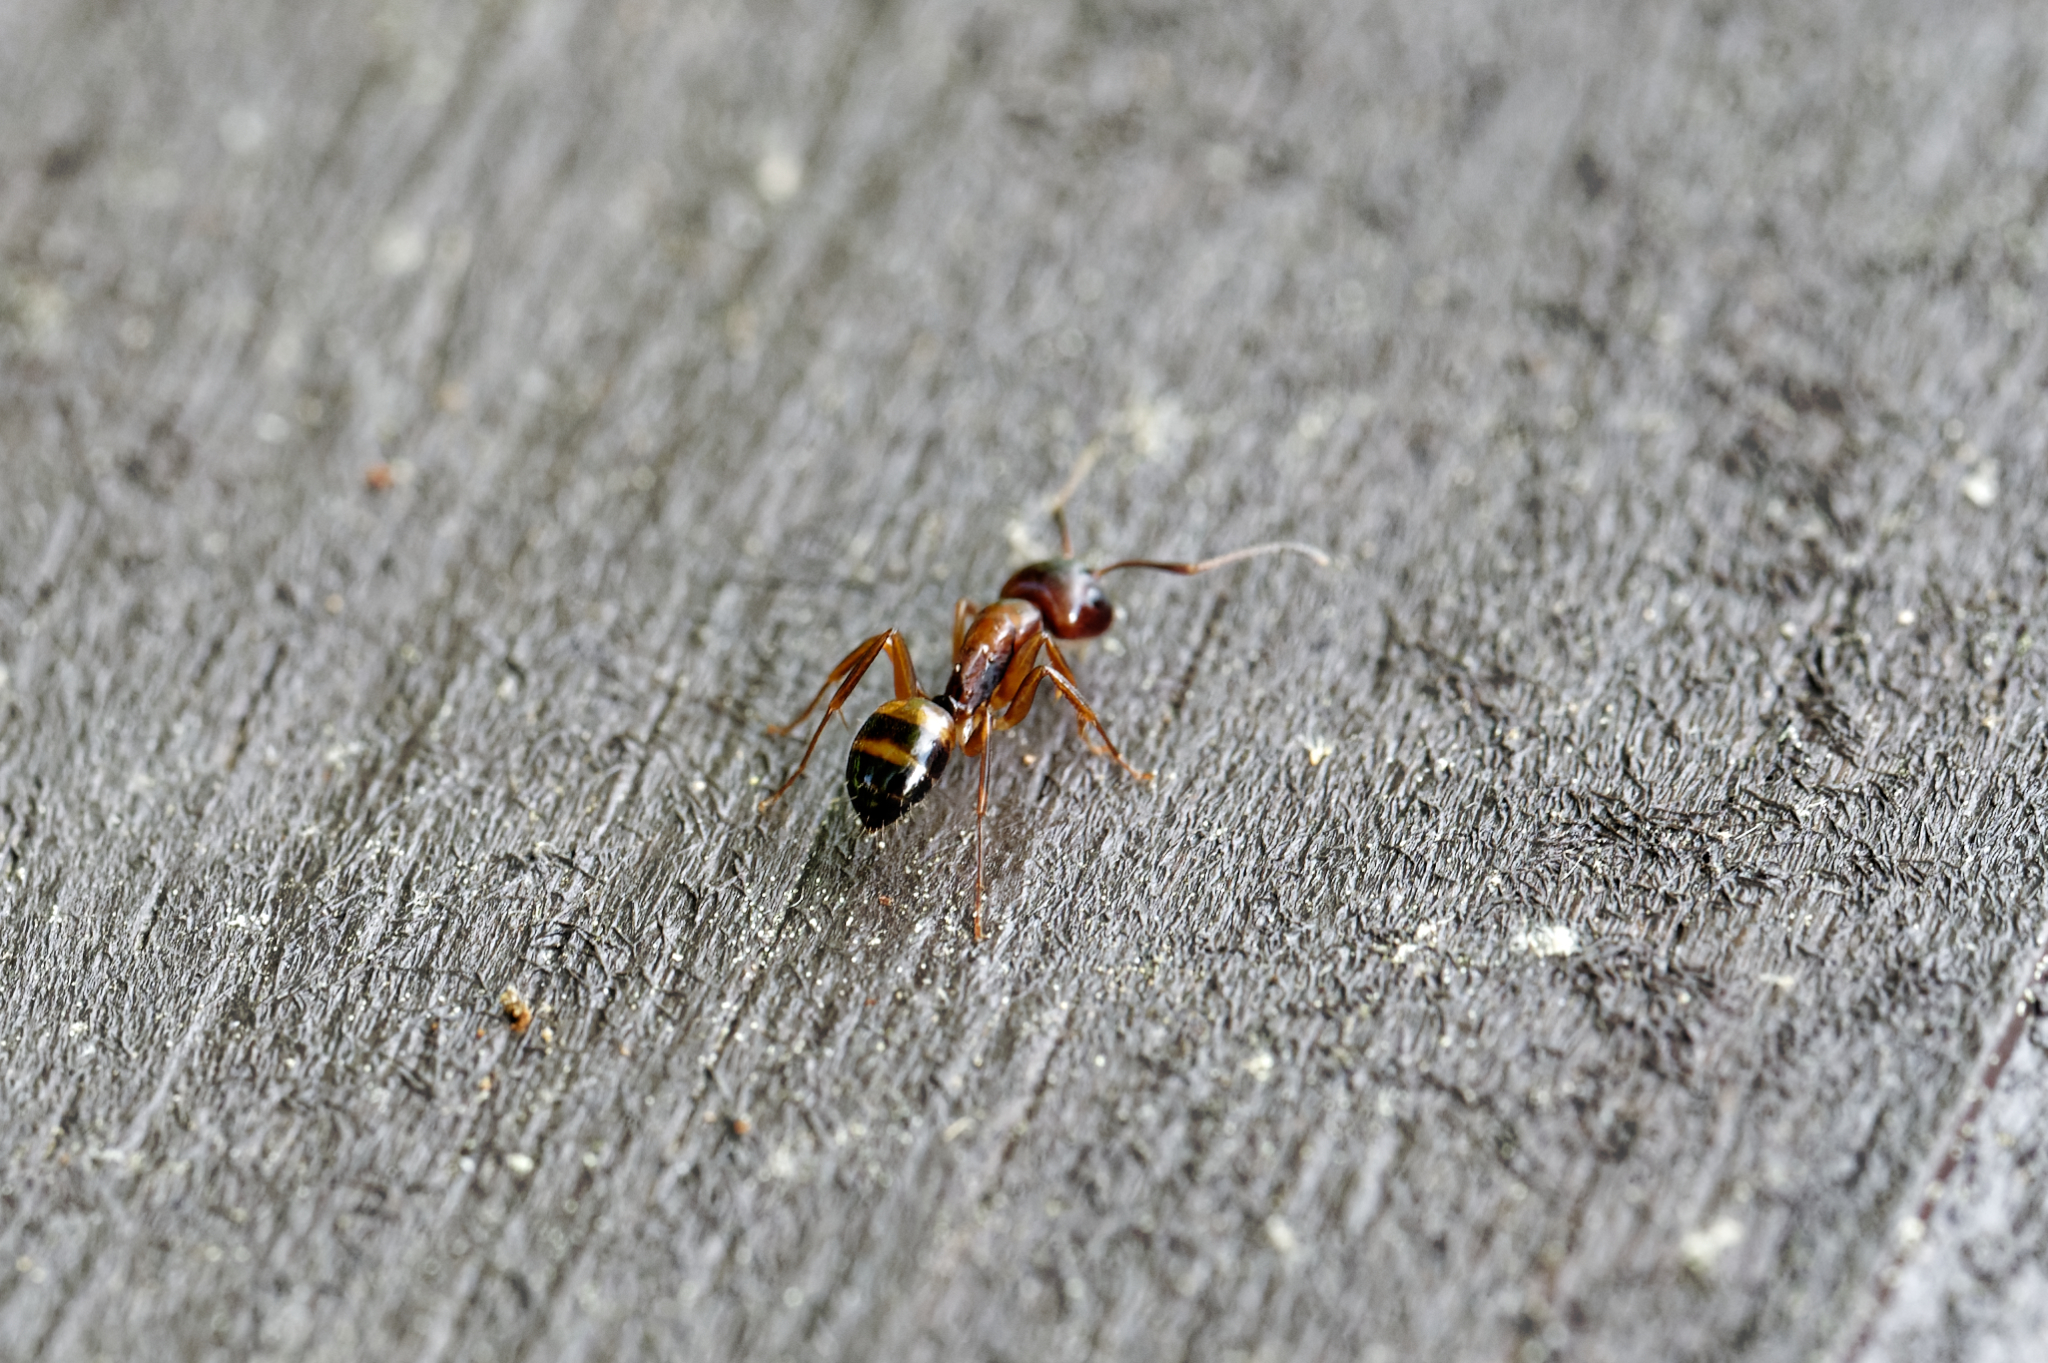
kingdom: Animalia
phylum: Arthropoda
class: Insecta
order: Hymenoptera
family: Formicidae
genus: Camponotus
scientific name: Camponotus subbarbatus
